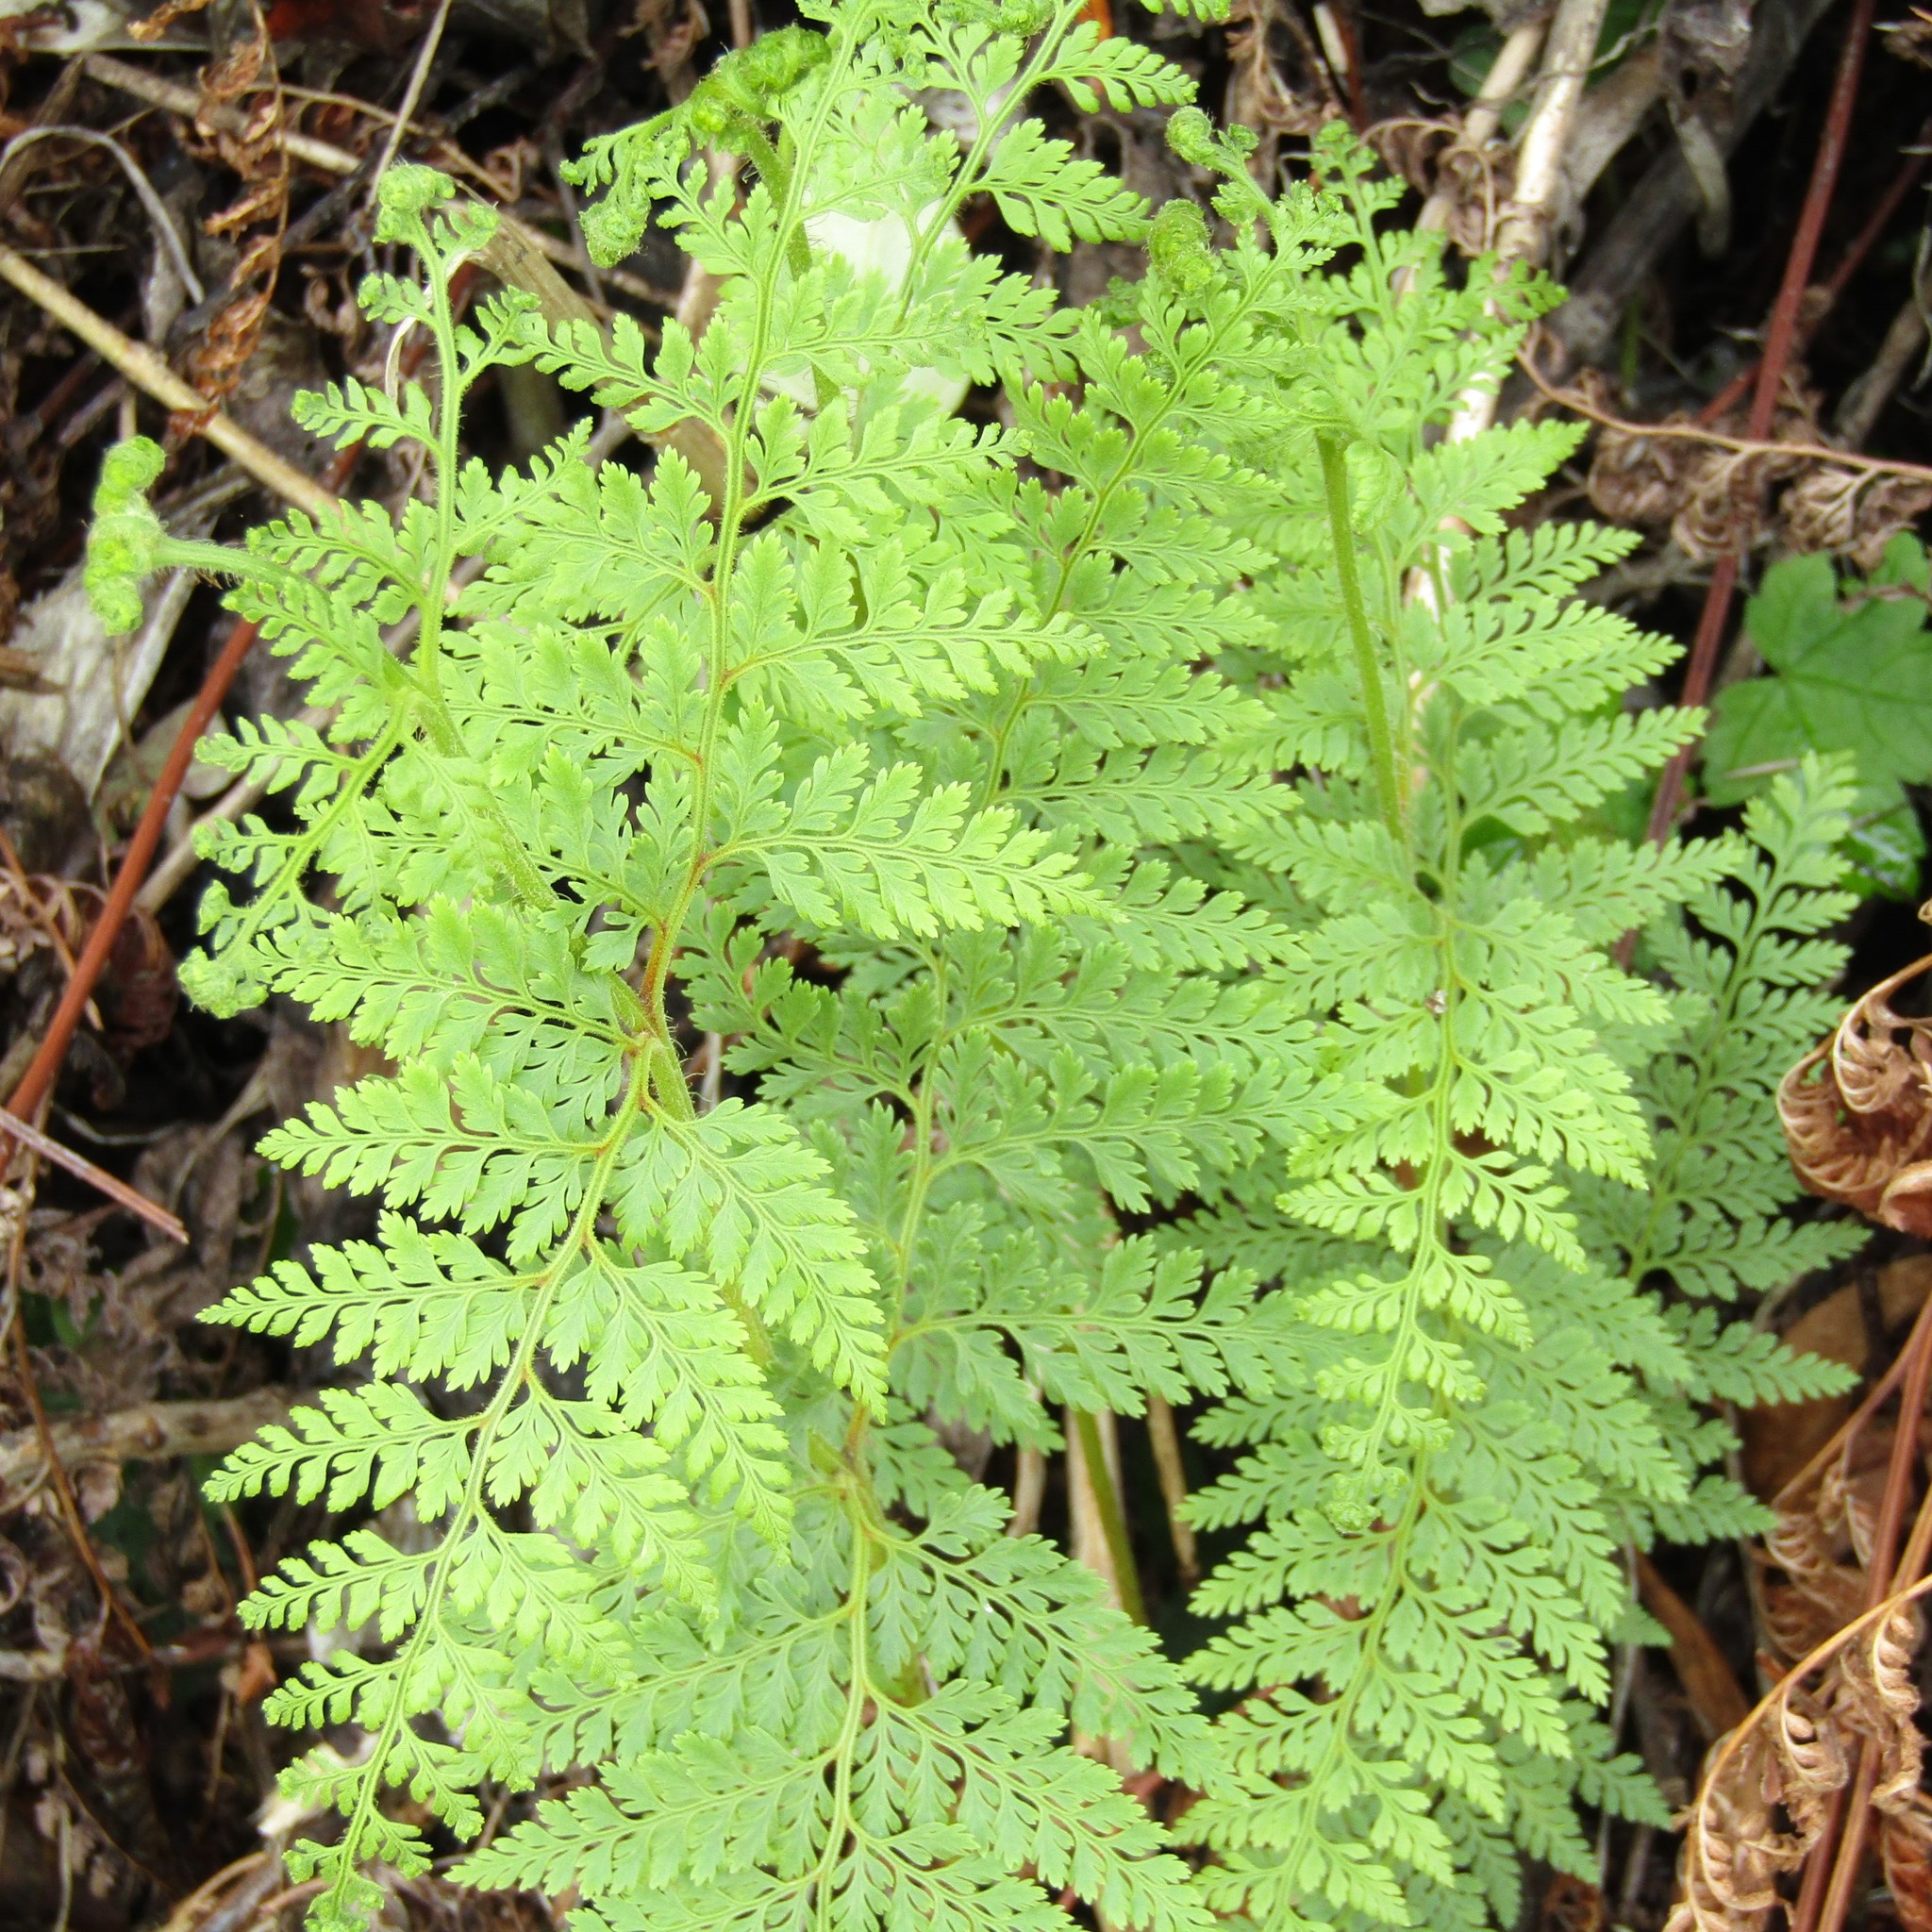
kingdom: Plantae
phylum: Tracheophyta
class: Polypodiopsida
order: Polypodiales
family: Dennstaedtiaceae
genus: Paesia
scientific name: Paesia scaberula
